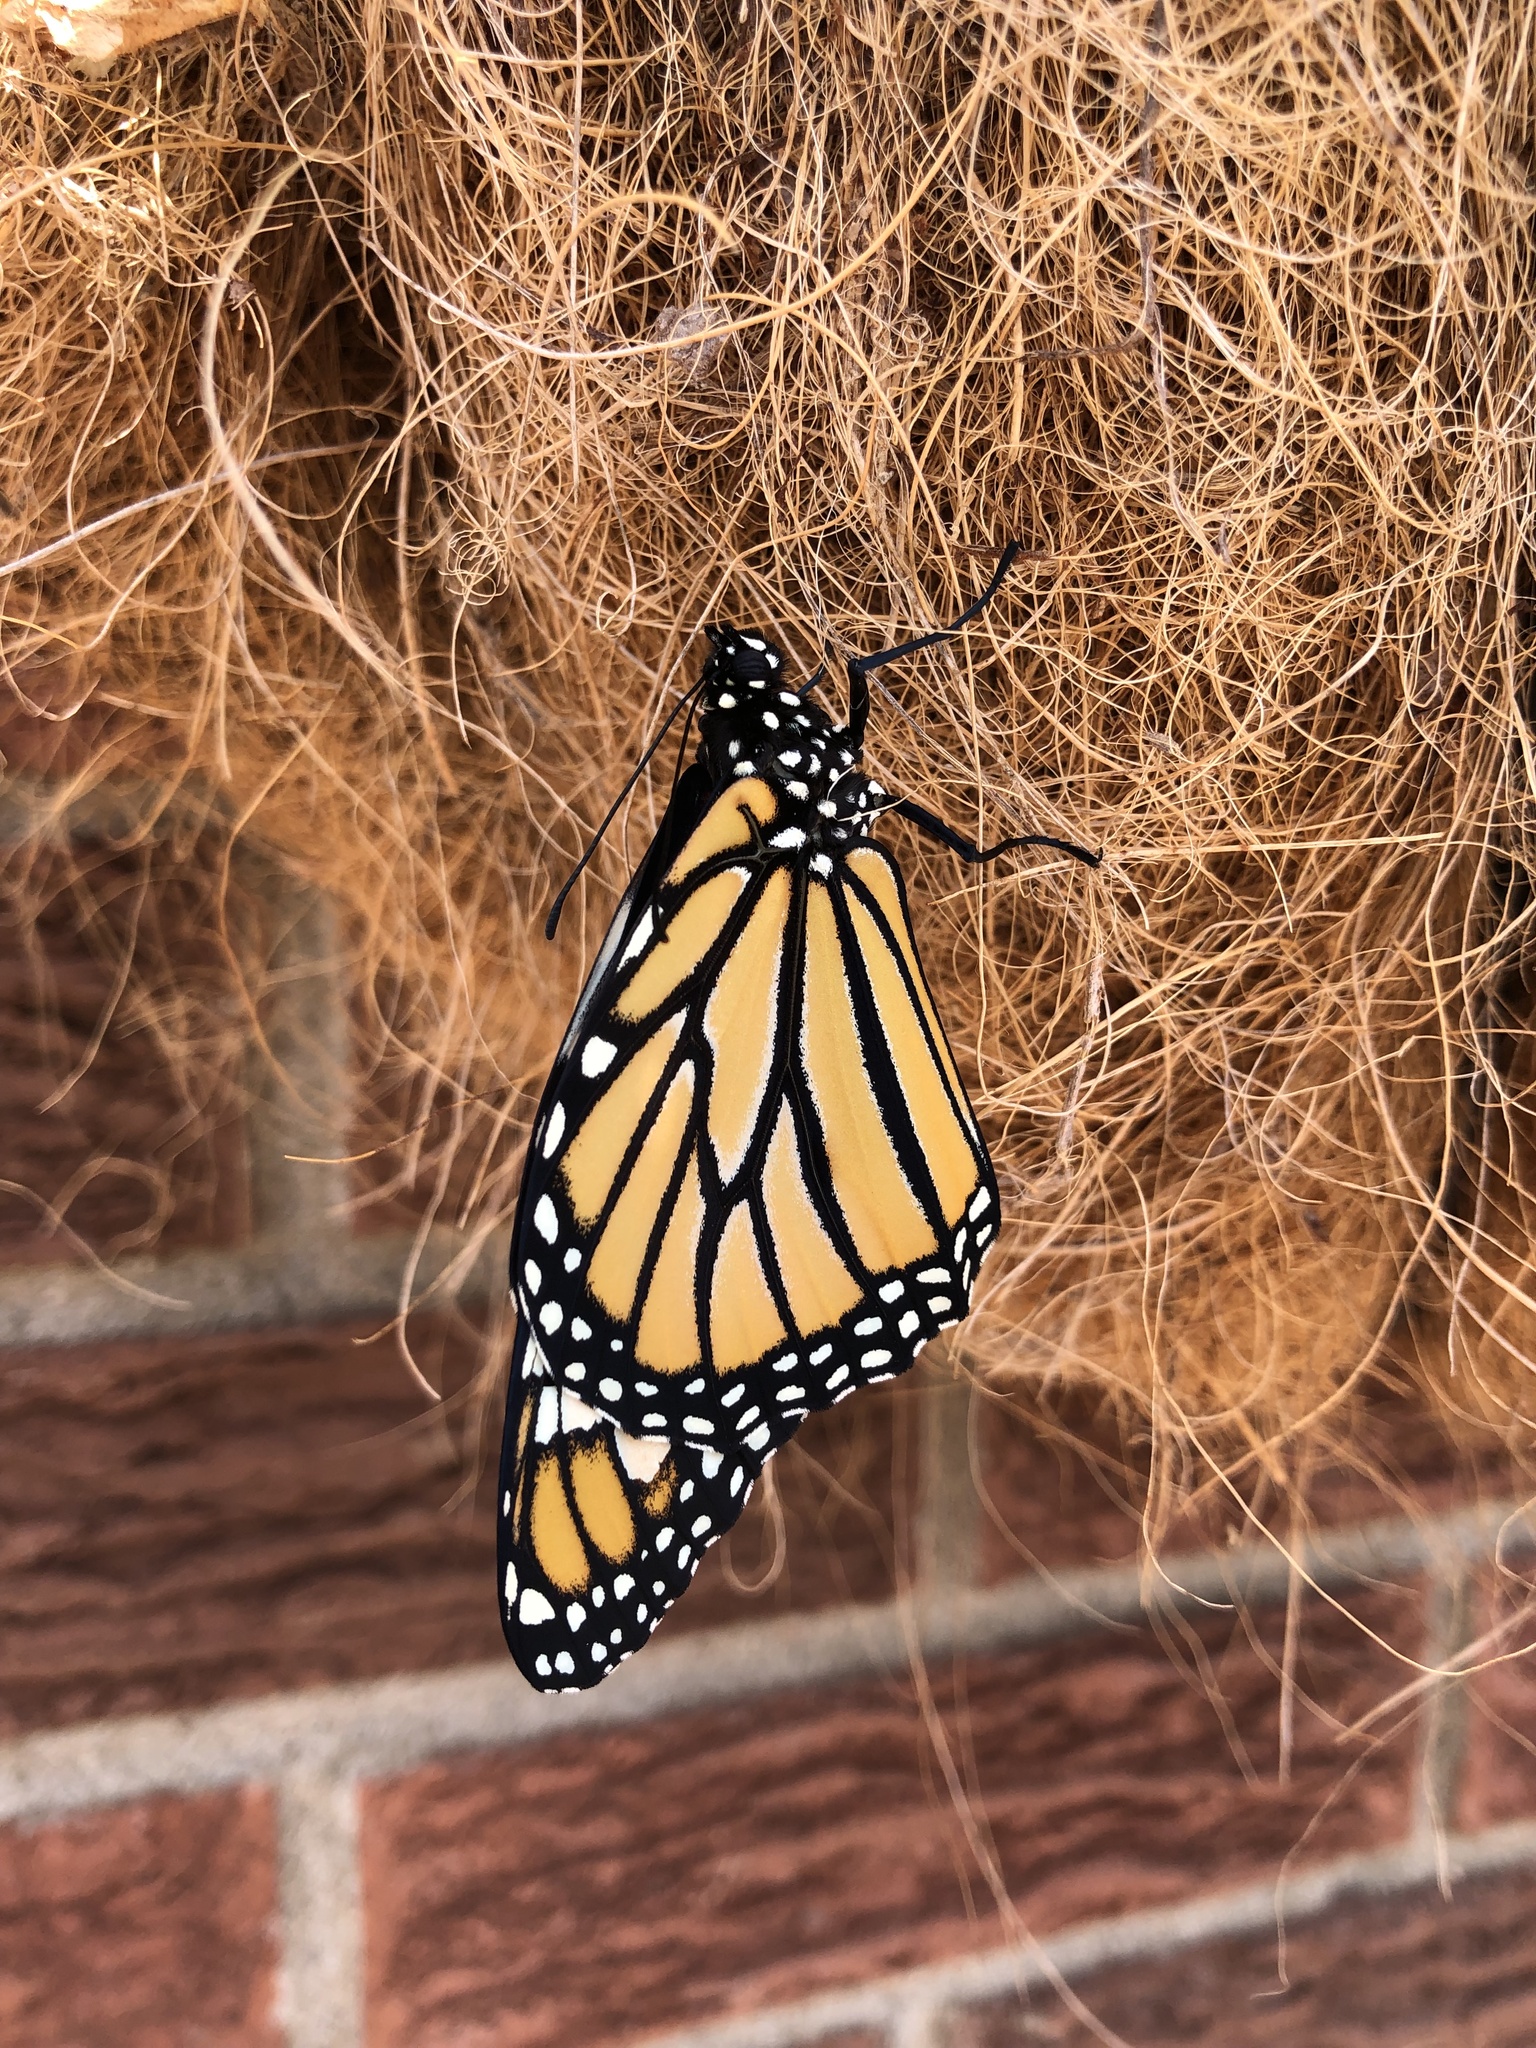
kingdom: Animalia
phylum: Arthropoda
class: Insecta
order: Lepidoptera
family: Nymphalidae
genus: Danaus
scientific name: Danaus plexippus
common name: Monarch
